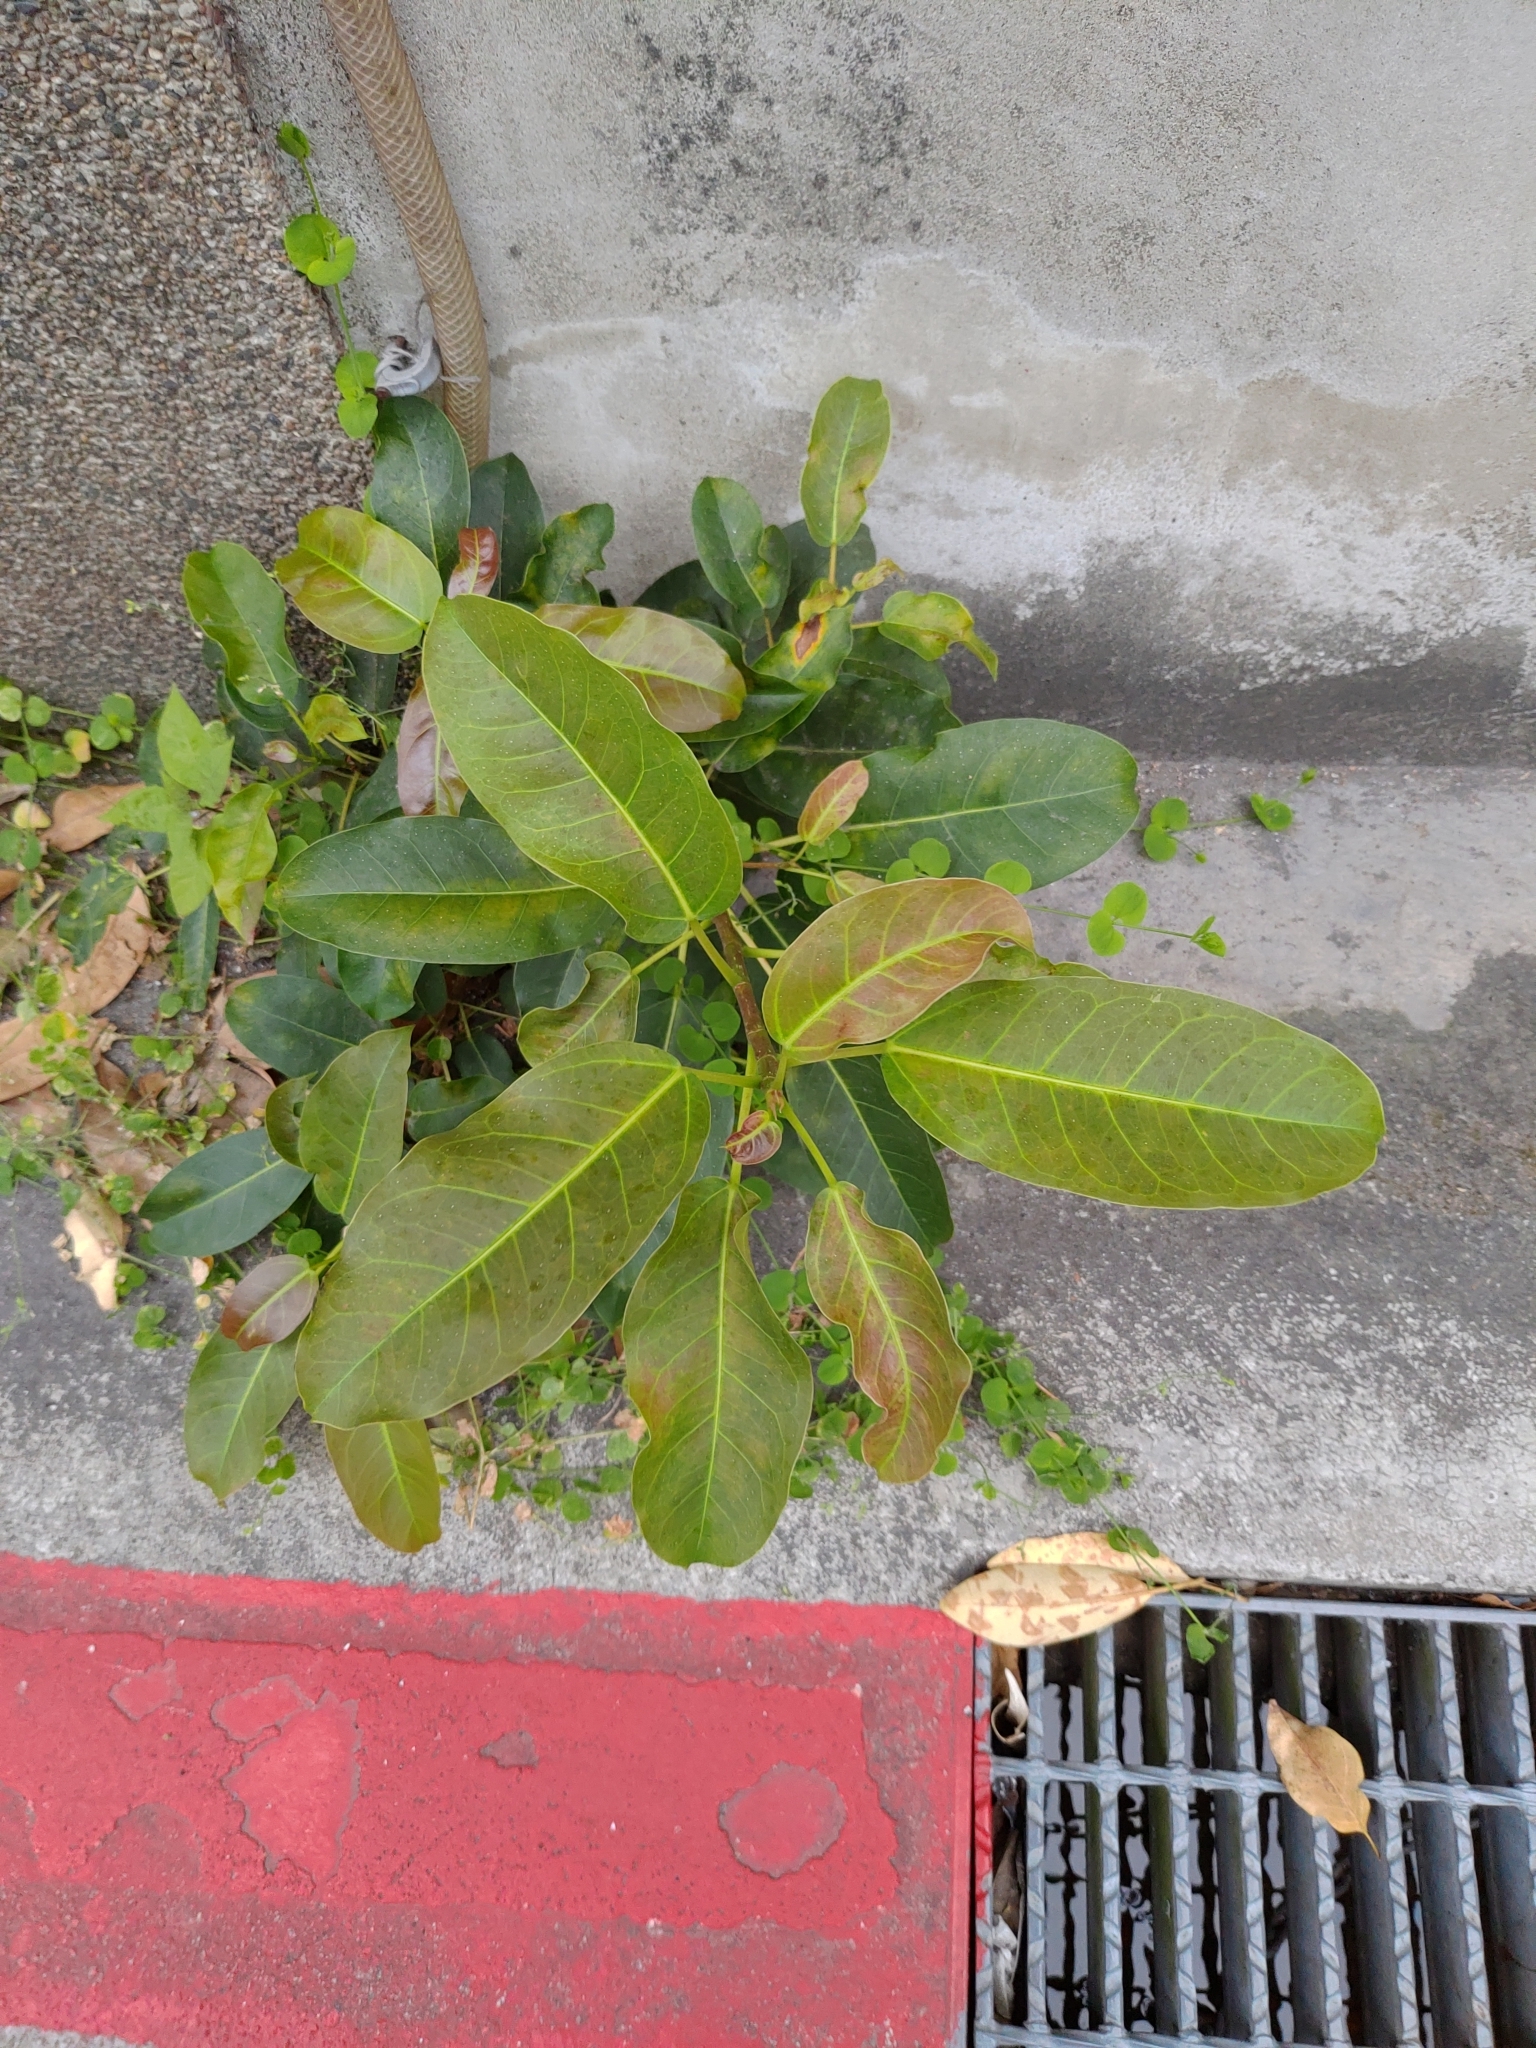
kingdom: Plantae
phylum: Tracheophyta
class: Magnoliopsida
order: Rosales
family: Moraceae
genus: Ficus
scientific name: Ficus subpisocarpa
